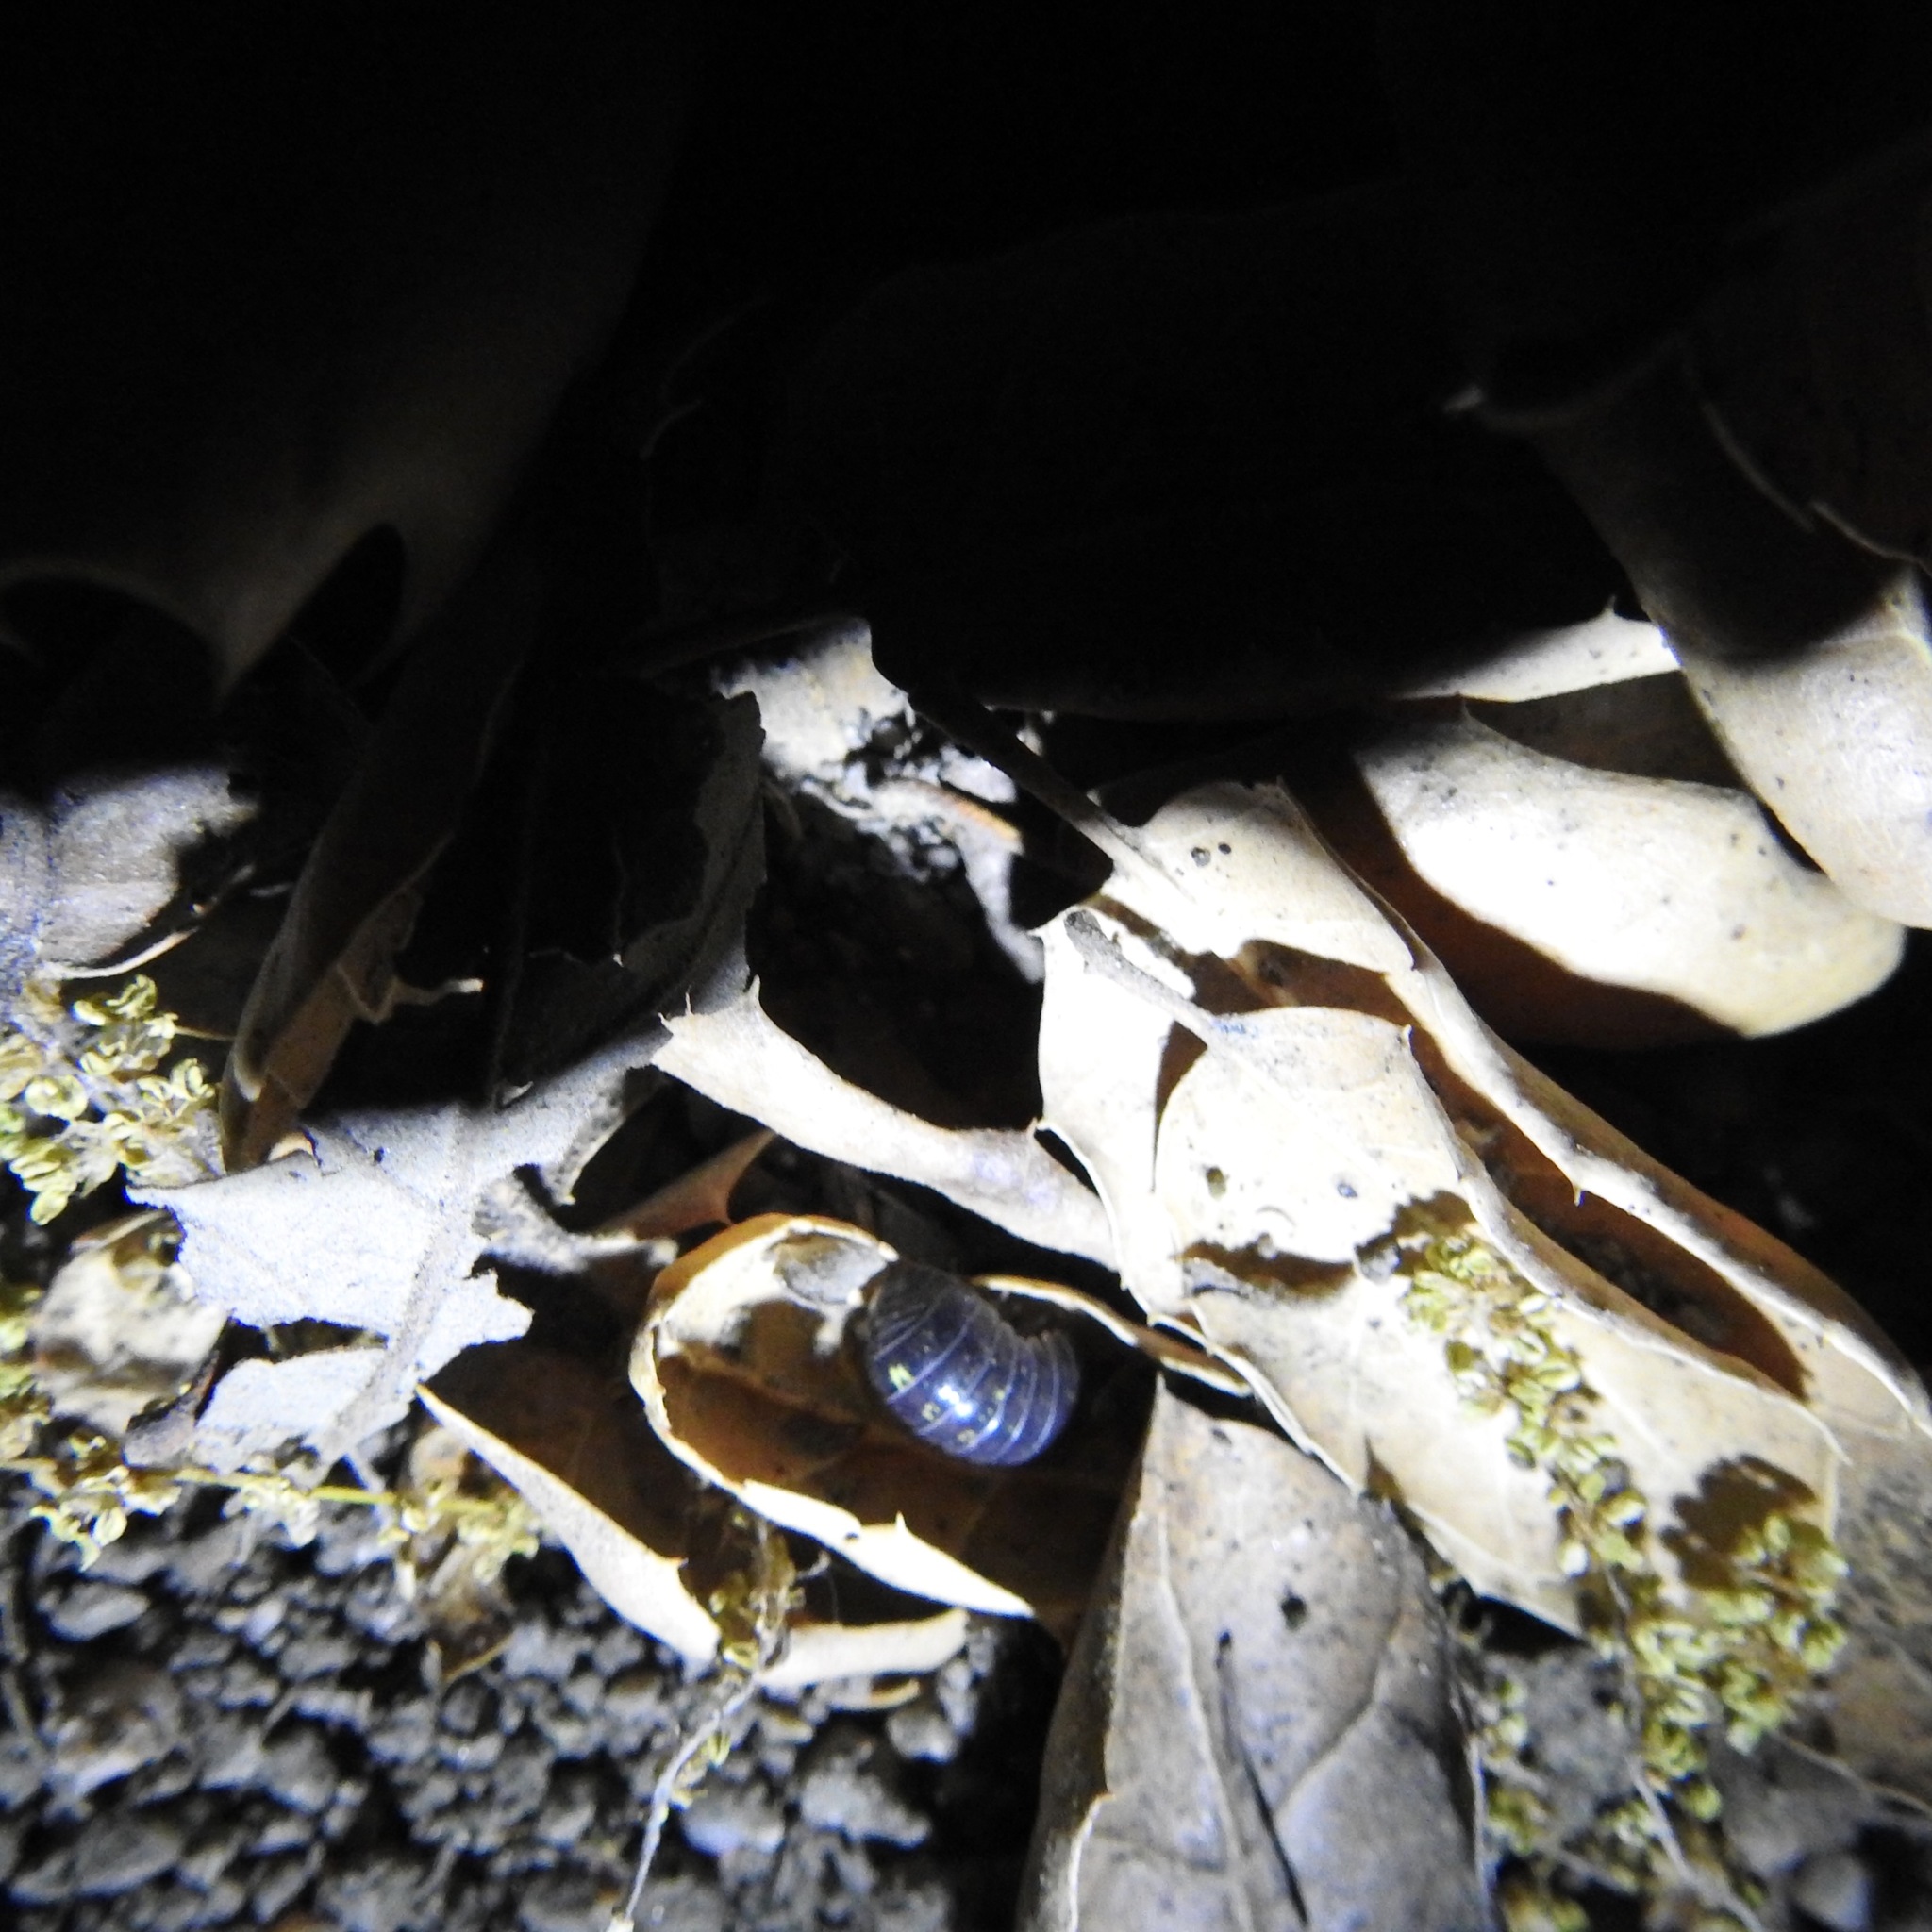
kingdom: Animalia
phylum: Arthropoda
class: Malacostraca
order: Isopoda
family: Armadillidiidae
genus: Armadillidium
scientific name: Armadillidium vulgare
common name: Common pill woodlouse
